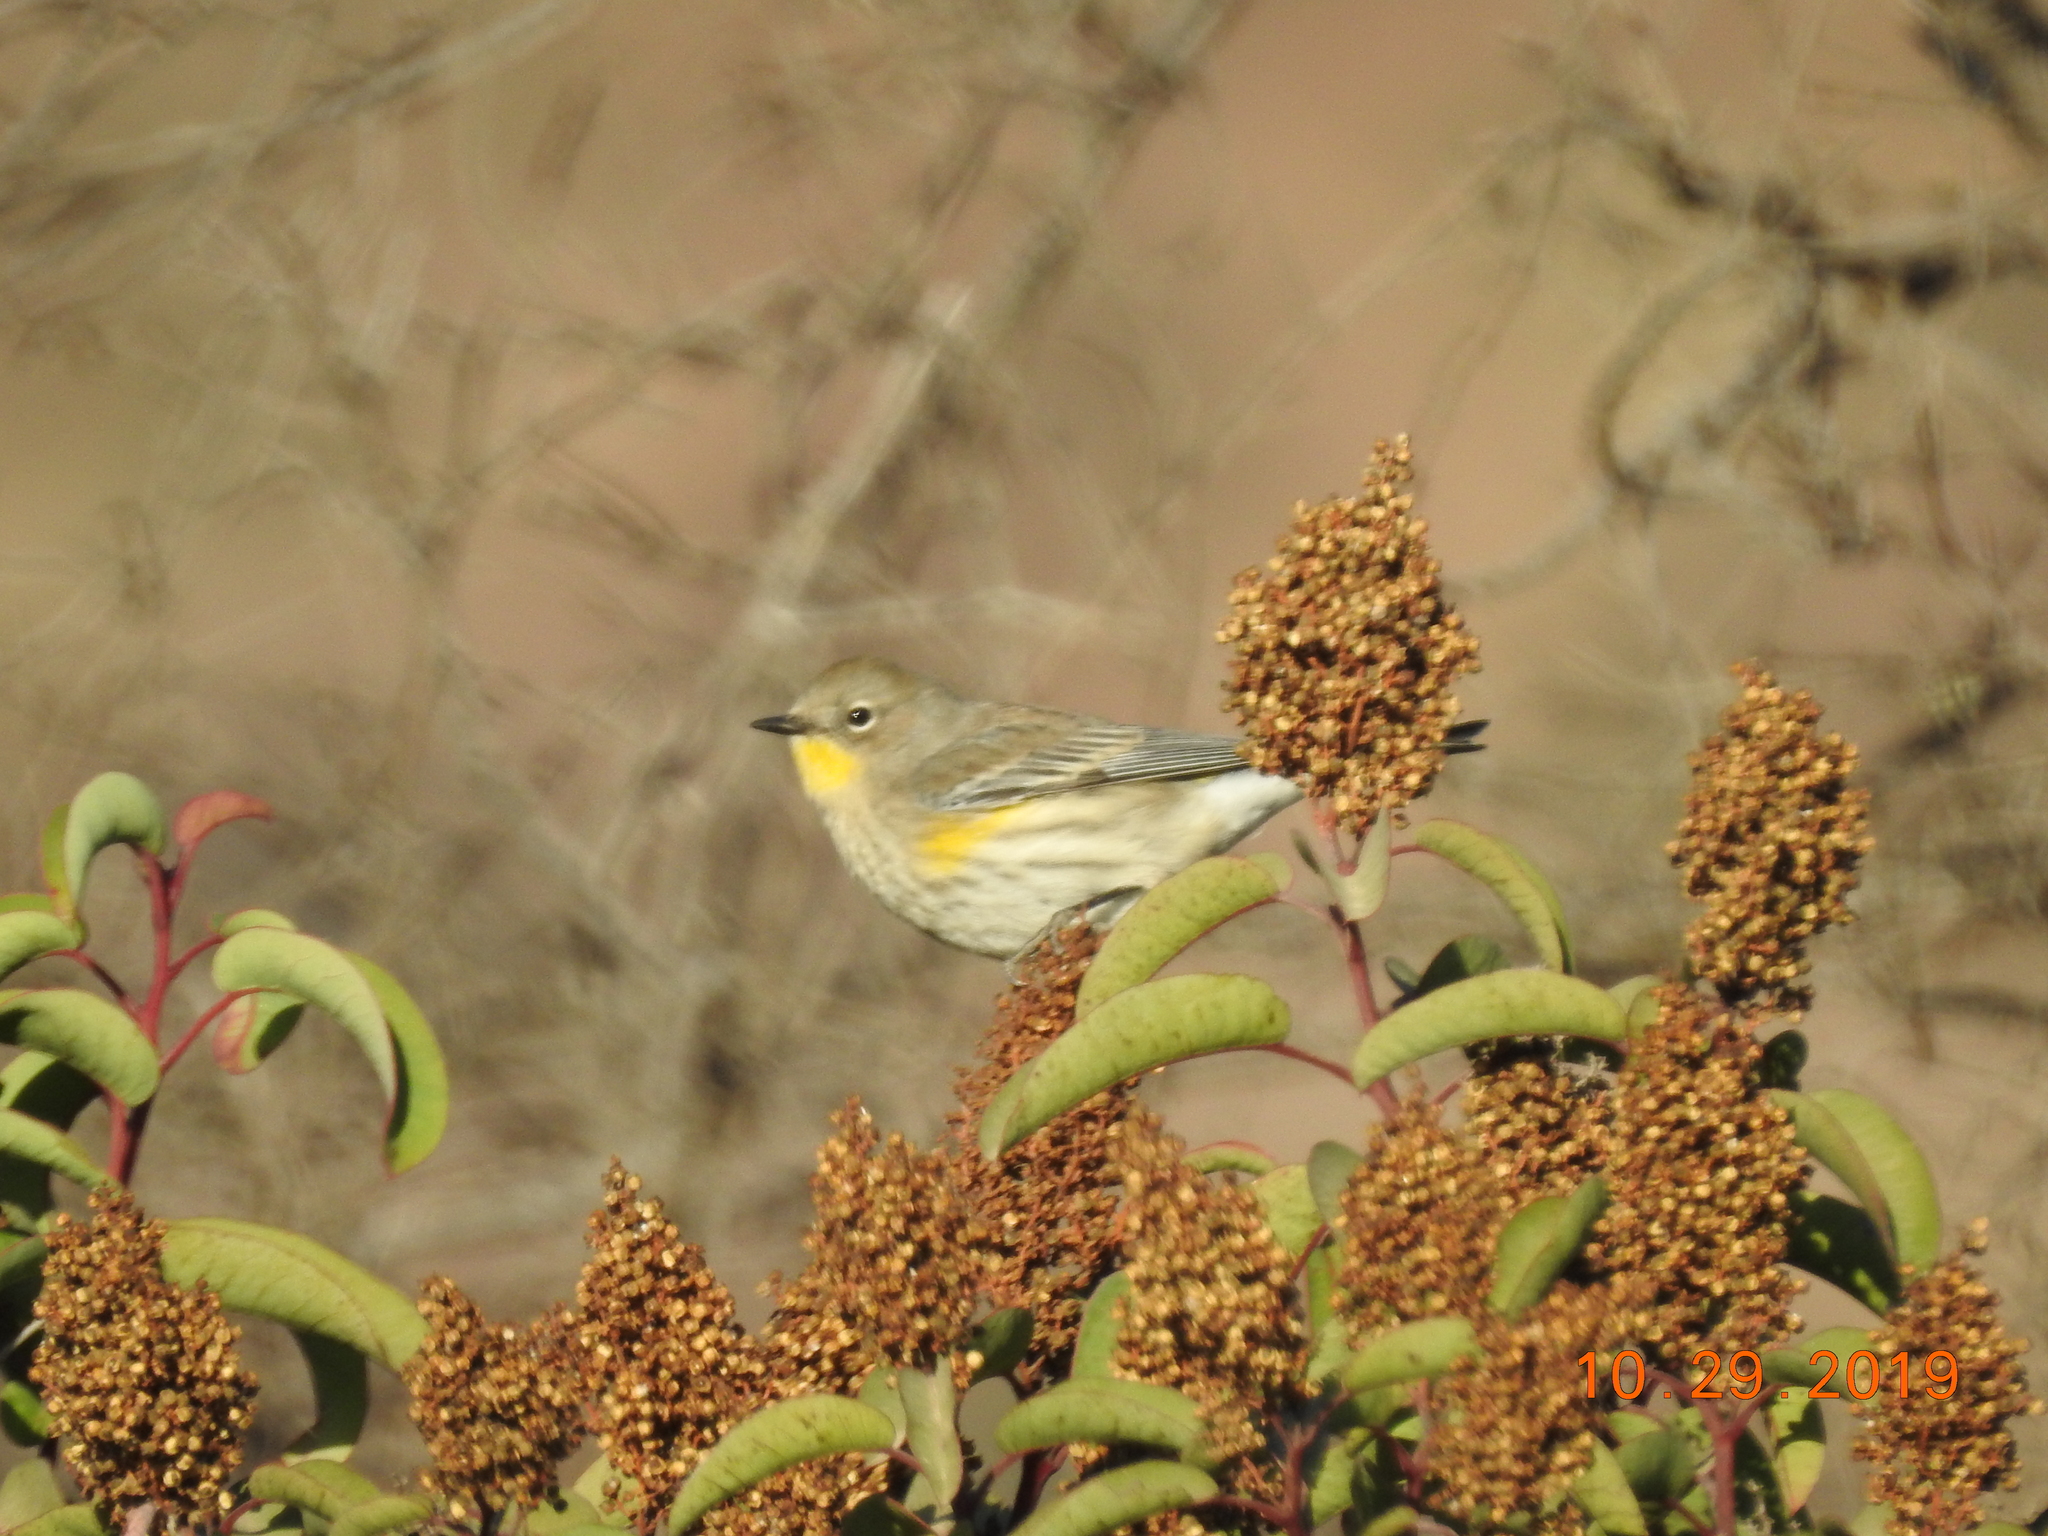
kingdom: Animalia
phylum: Chordata
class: Aves
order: Passeriformes
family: Parulidae
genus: Setophaga
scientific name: Setophaga coronata
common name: Myrtle warbler
